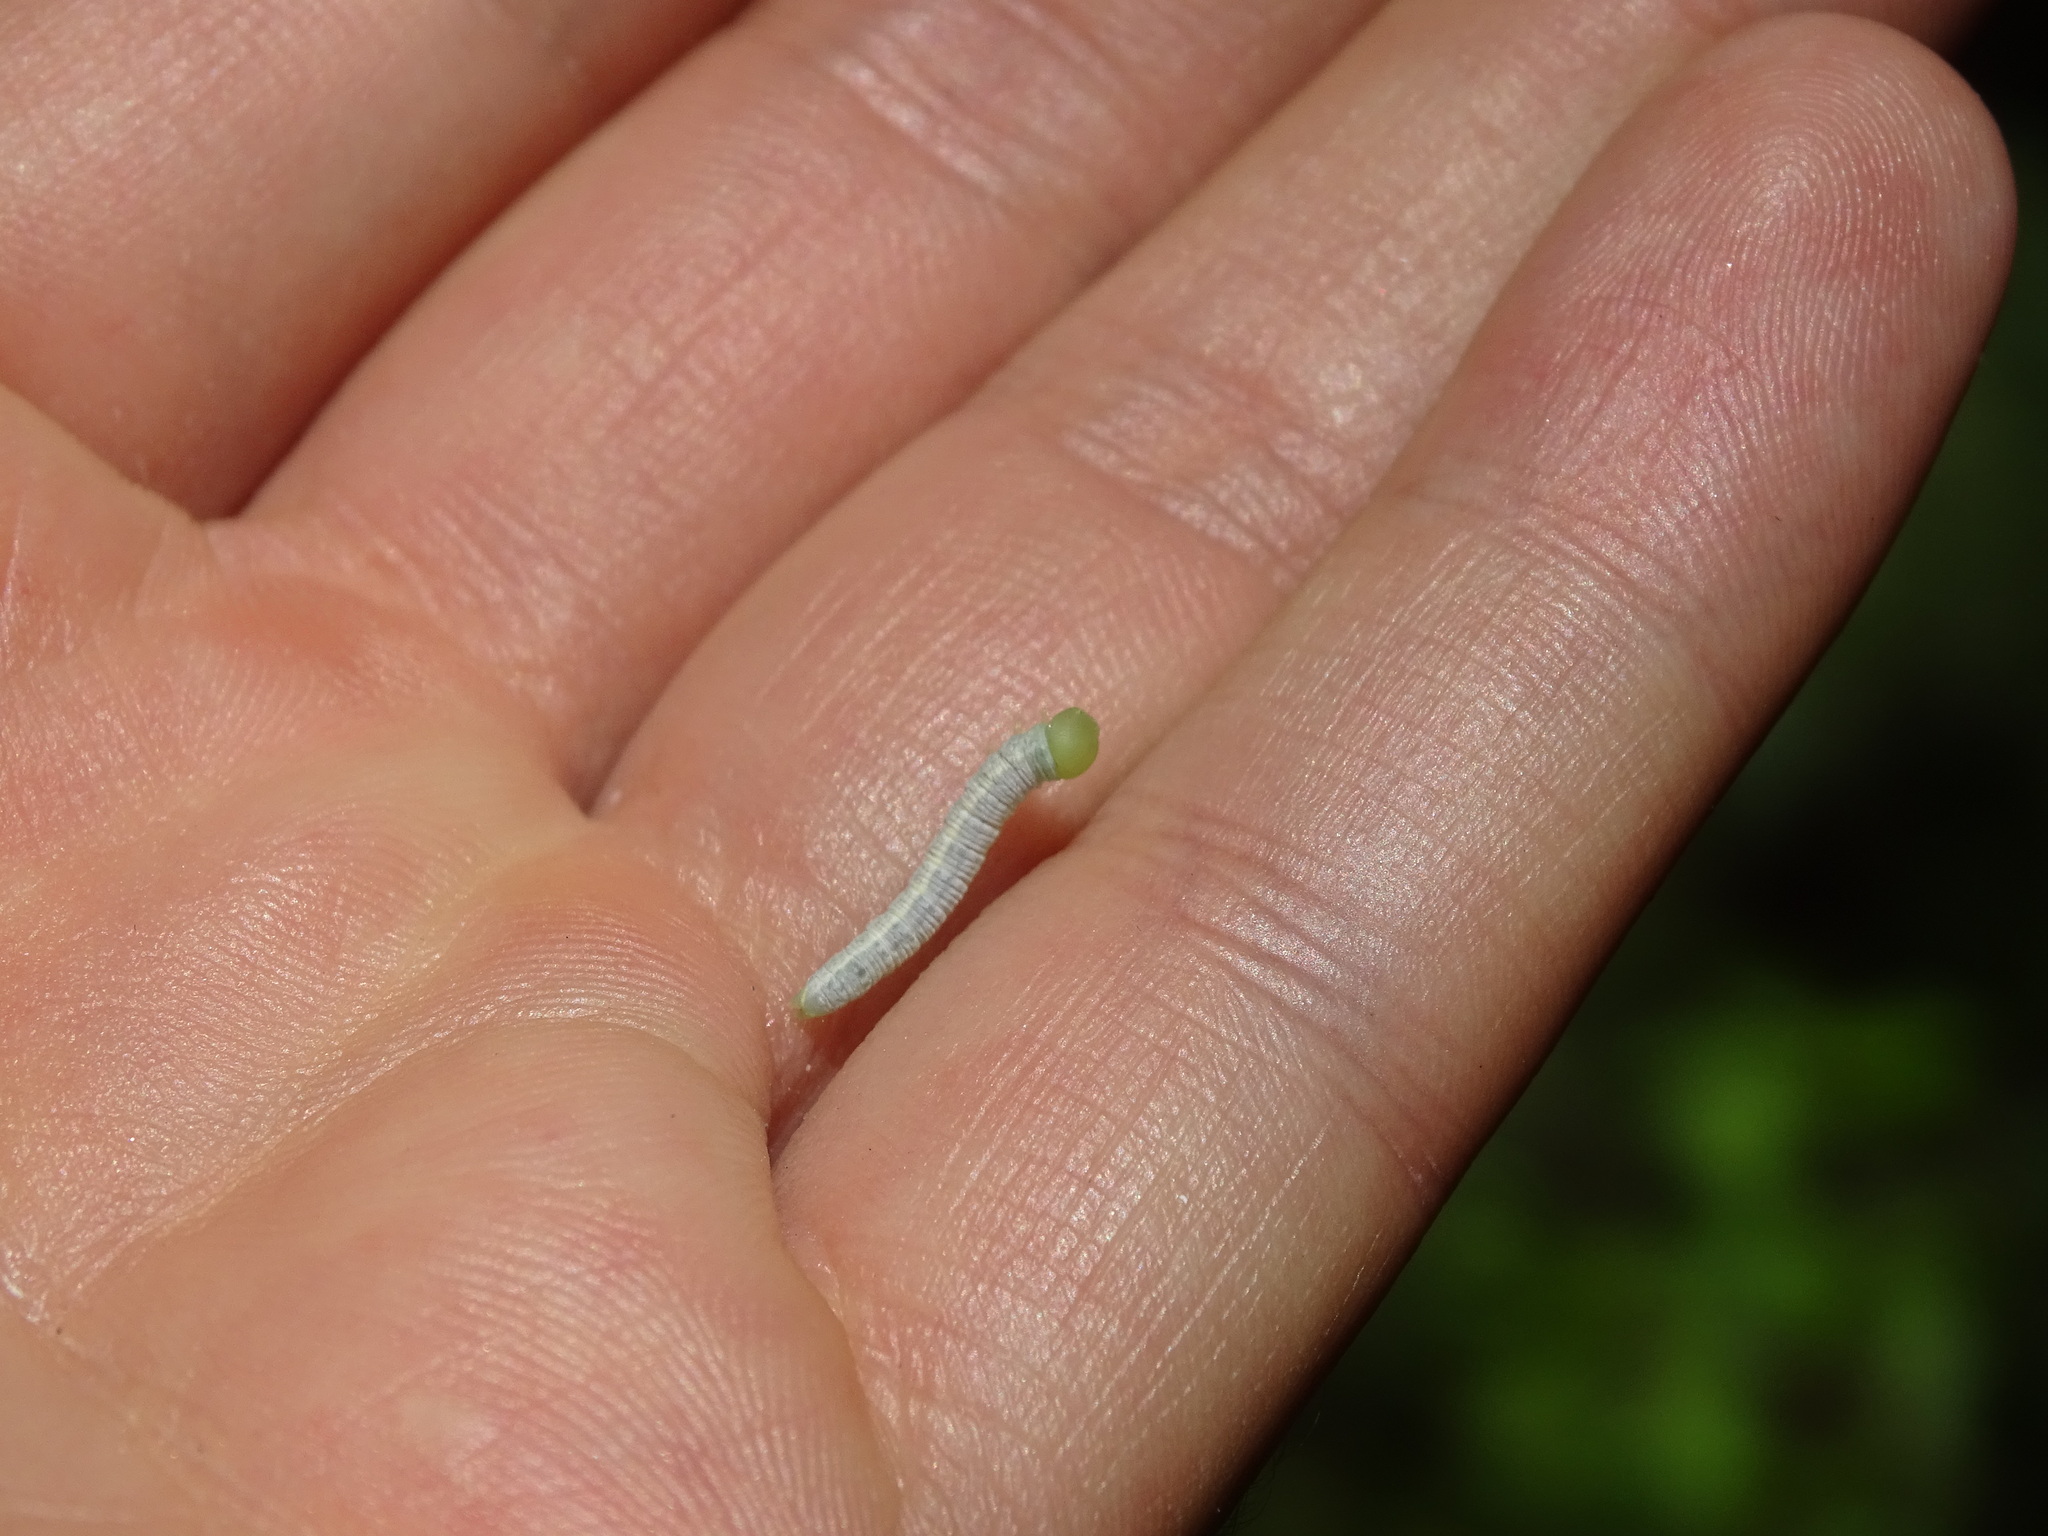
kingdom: Animalia
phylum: Arthropoda
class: Insecta
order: Lepidoptera
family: Notodontidae
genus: Nadata
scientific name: Nadata gibbosa
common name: White-dotted prominent
